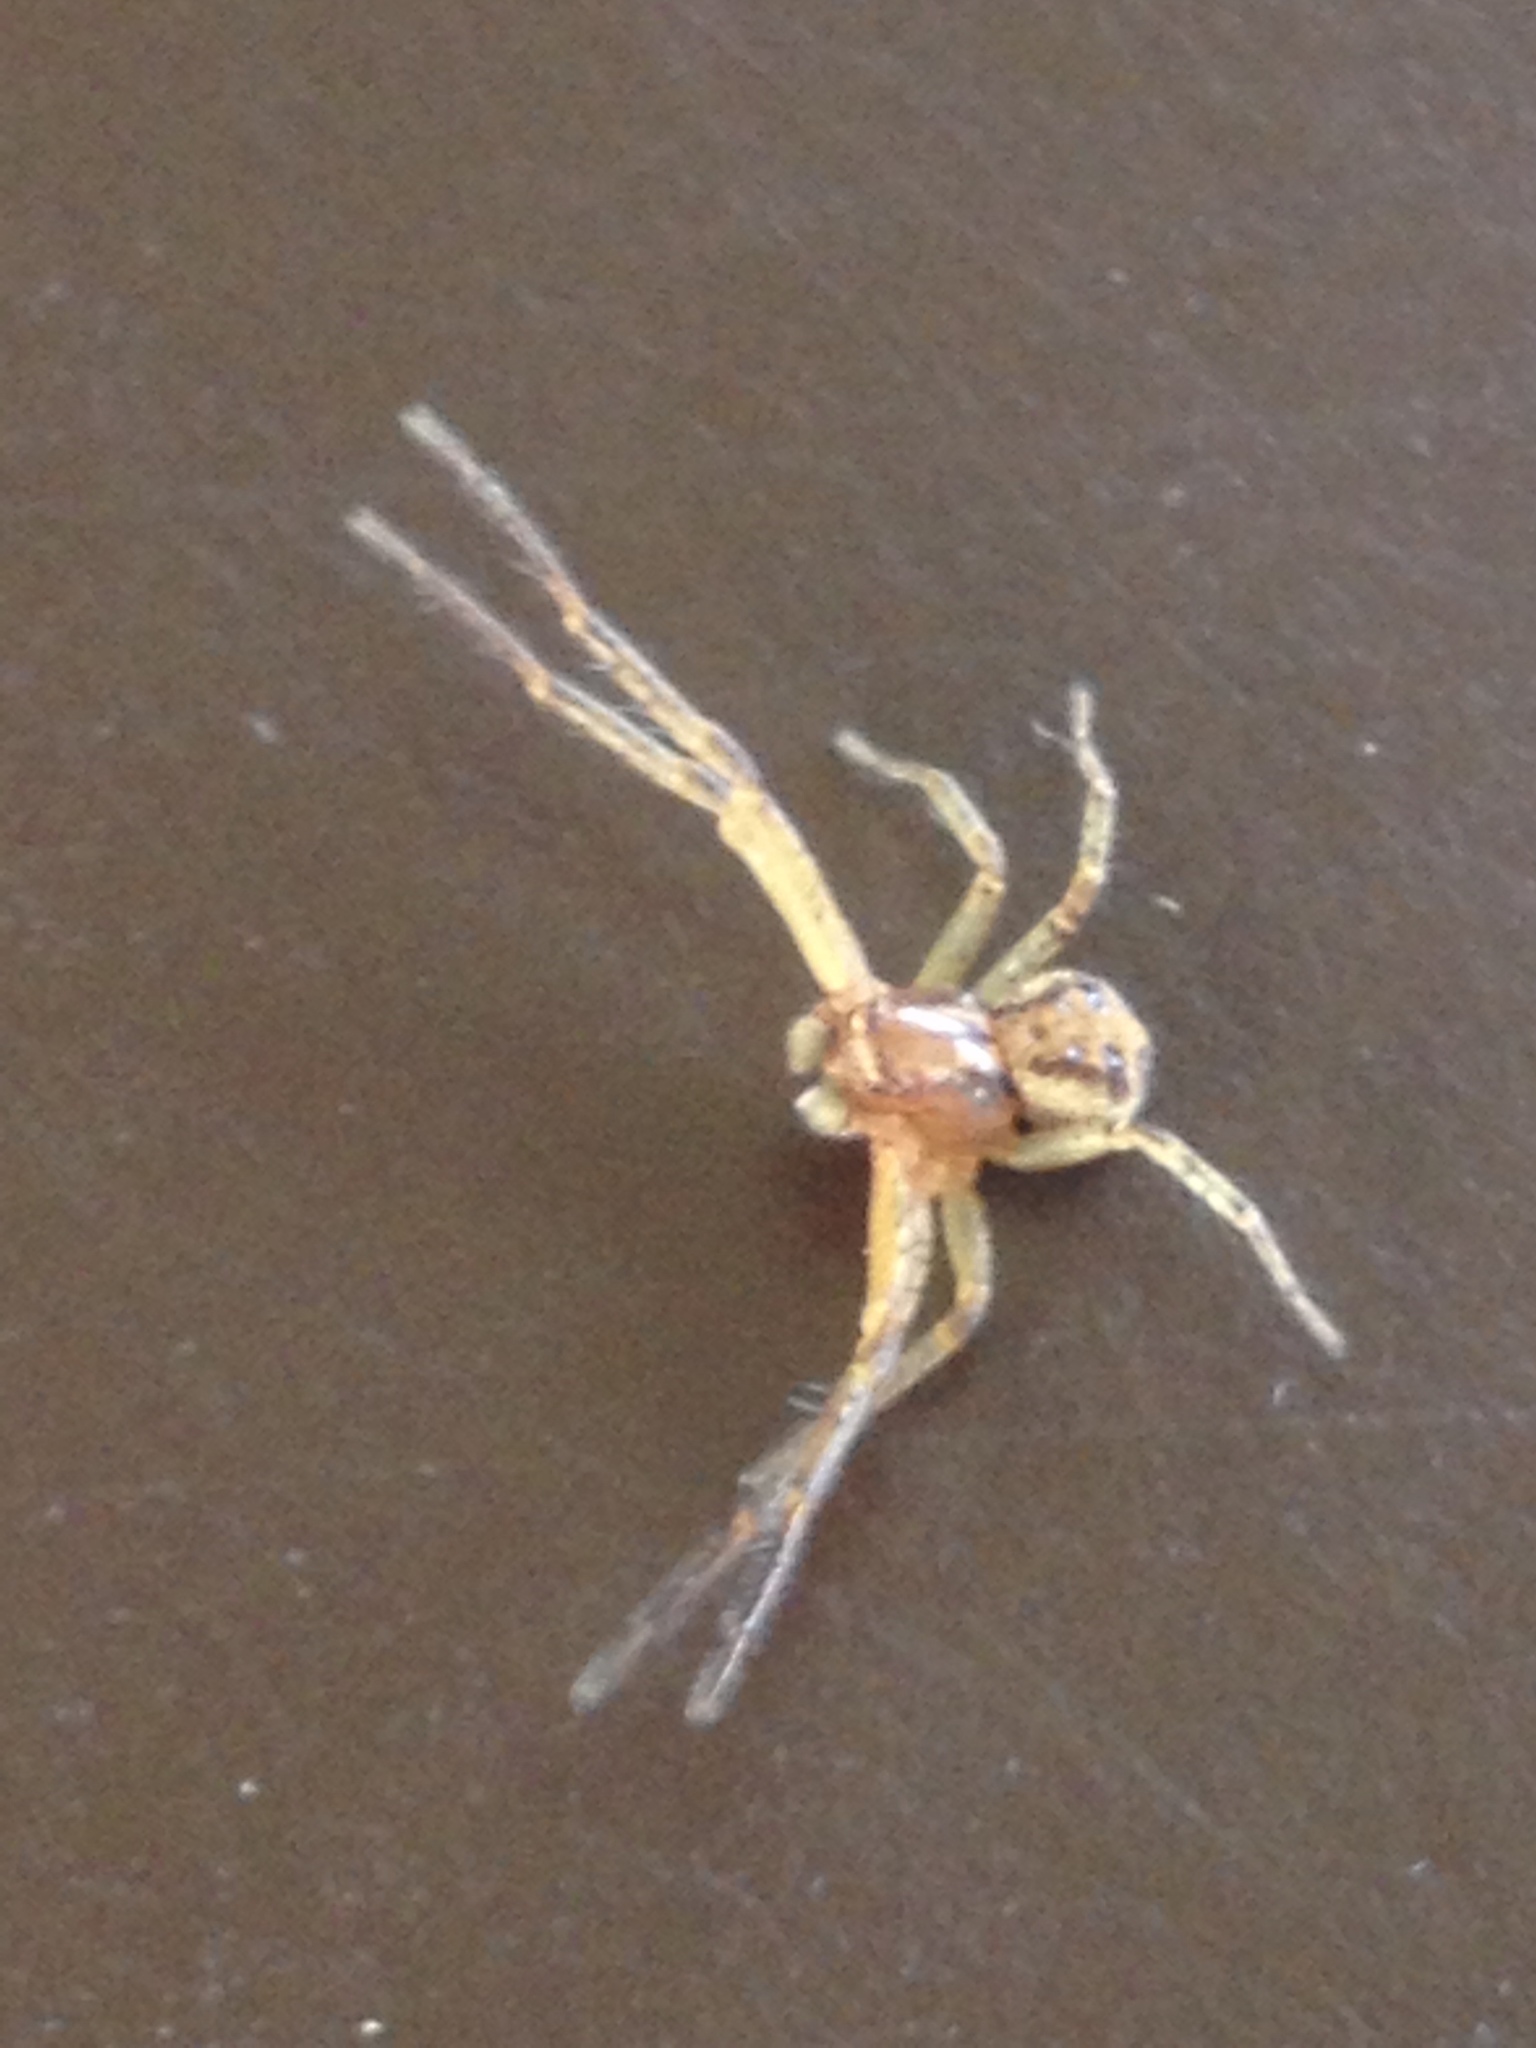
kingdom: Animalia
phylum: Arthropoda
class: Arachnida
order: Araneae
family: Thomisidae
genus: Ozyptila
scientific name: Ozyptila
